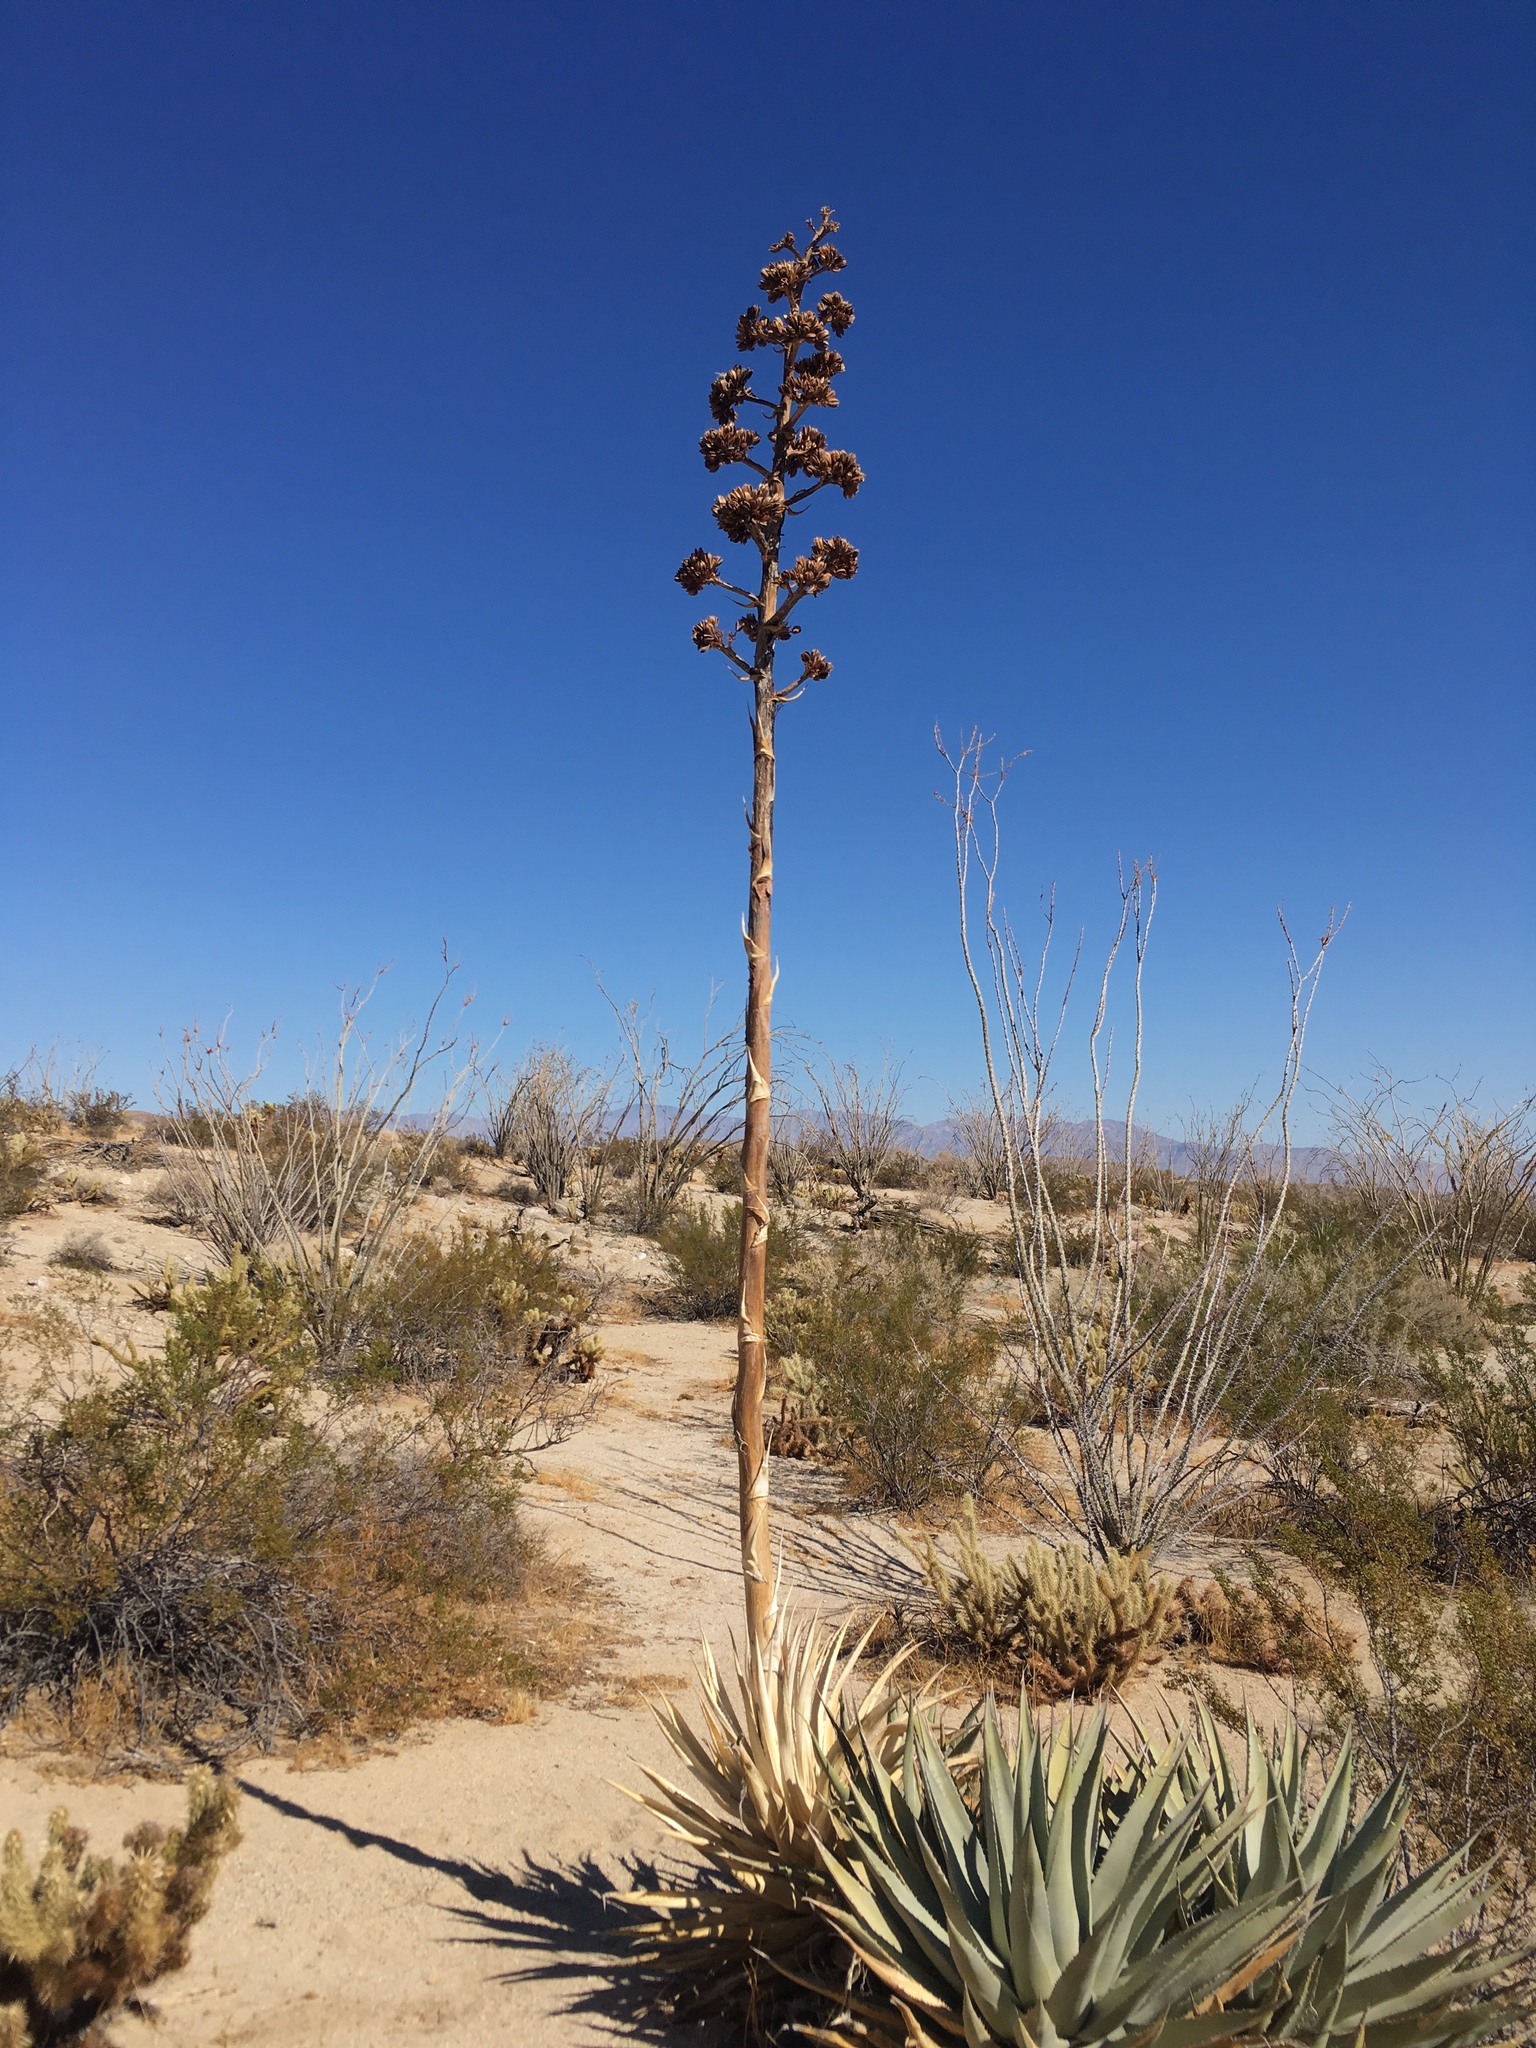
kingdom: Plantae
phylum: Tracheophyta
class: Liliopsida
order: Asparagales
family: Asparagaceae
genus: Agave
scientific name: Agave deserti
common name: Desert agave
